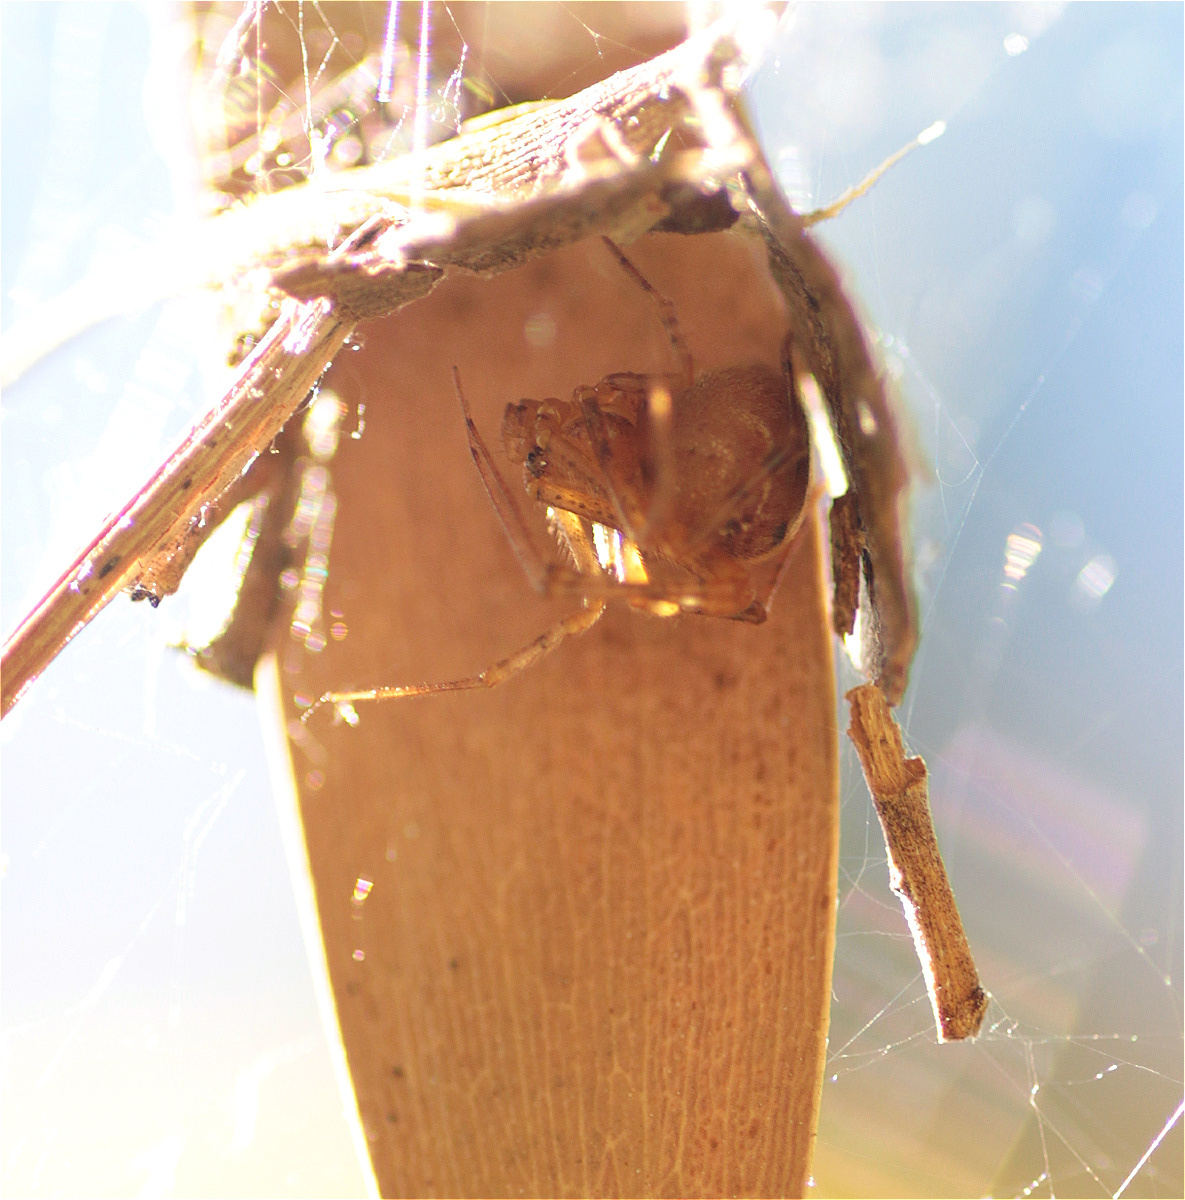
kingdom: Animalia
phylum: Arthropoda
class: Arachnida
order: Araneae
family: Theridiidae
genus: Parasteatoda
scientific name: Parasteatoda tepidariorum
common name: Common house spider
